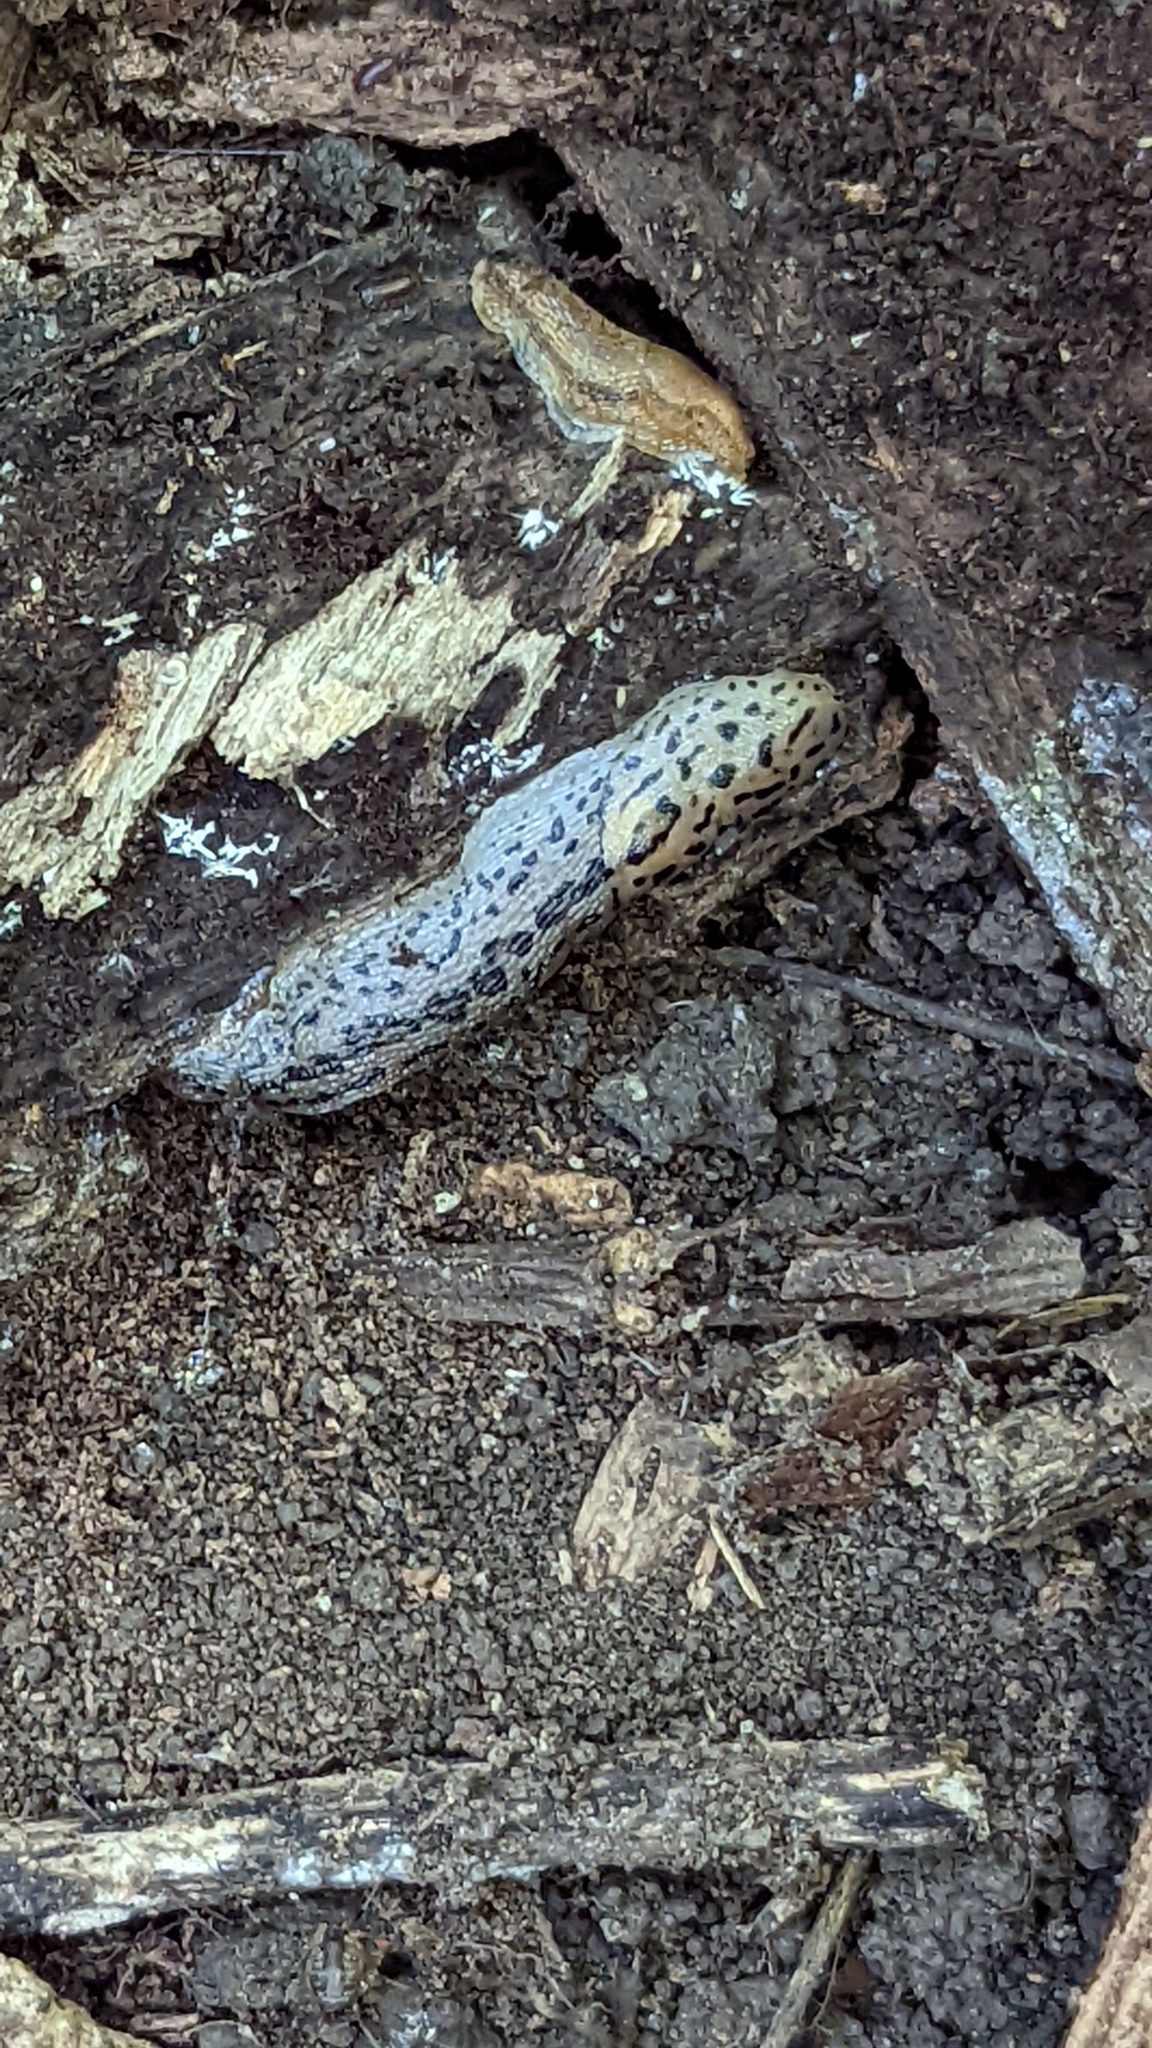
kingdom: Animalia
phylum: Mollusca
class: Gastropoda
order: Stylommatophora
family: Limacidae
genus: Limax
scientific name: Limax maximus
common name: Great grey slug
